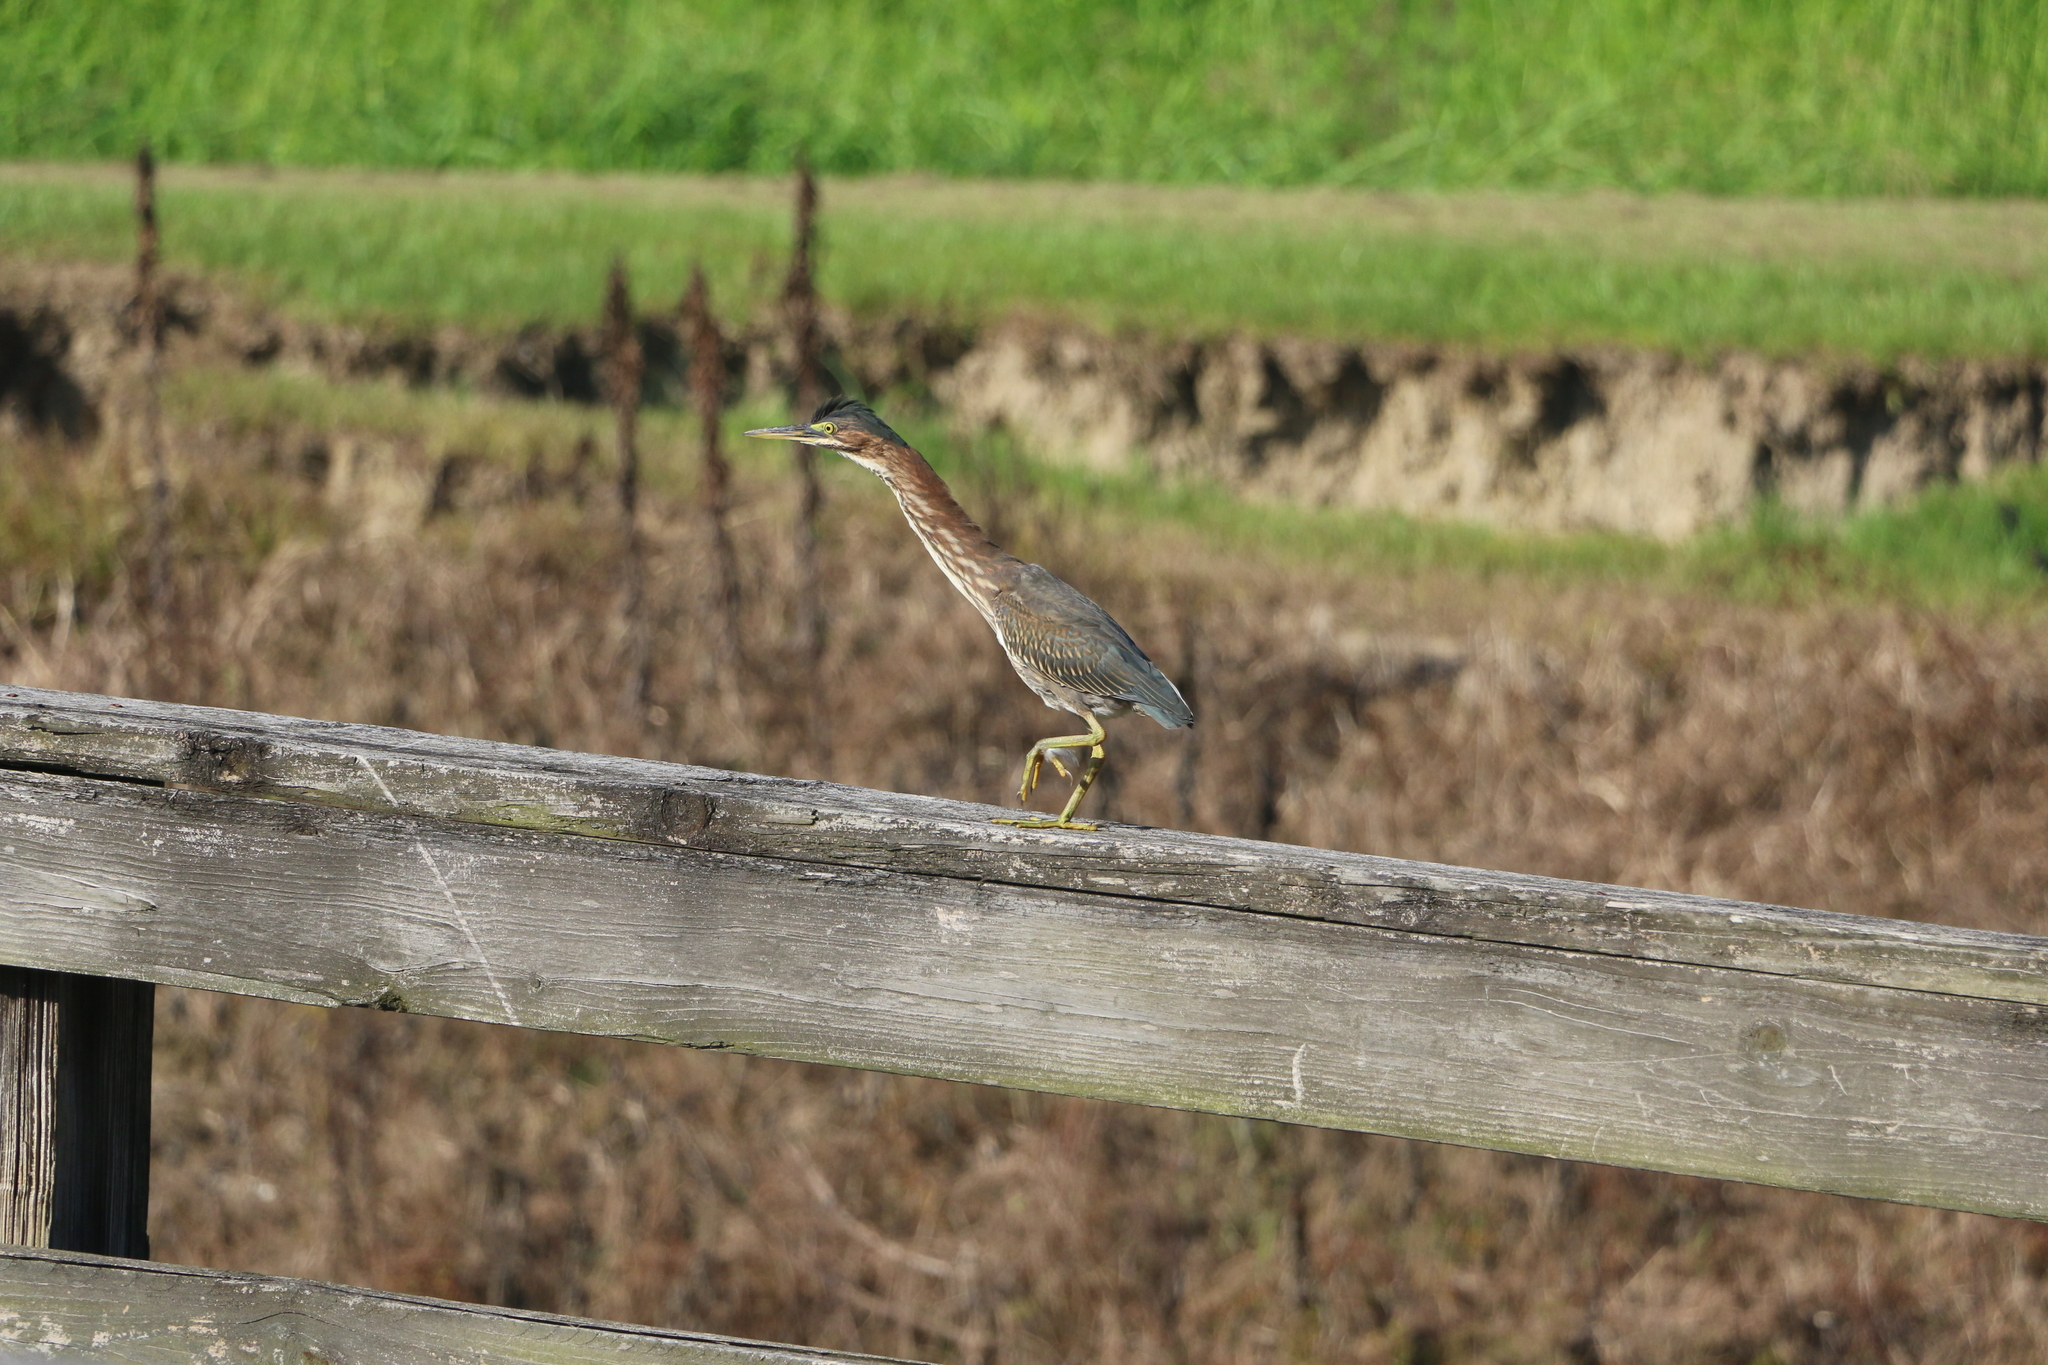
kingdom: Animalia
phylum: Chordata
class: Aves
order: Pelecaniformes
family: Ardeidae
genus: Butorides
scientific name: Butorides virescens
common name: Green heron
